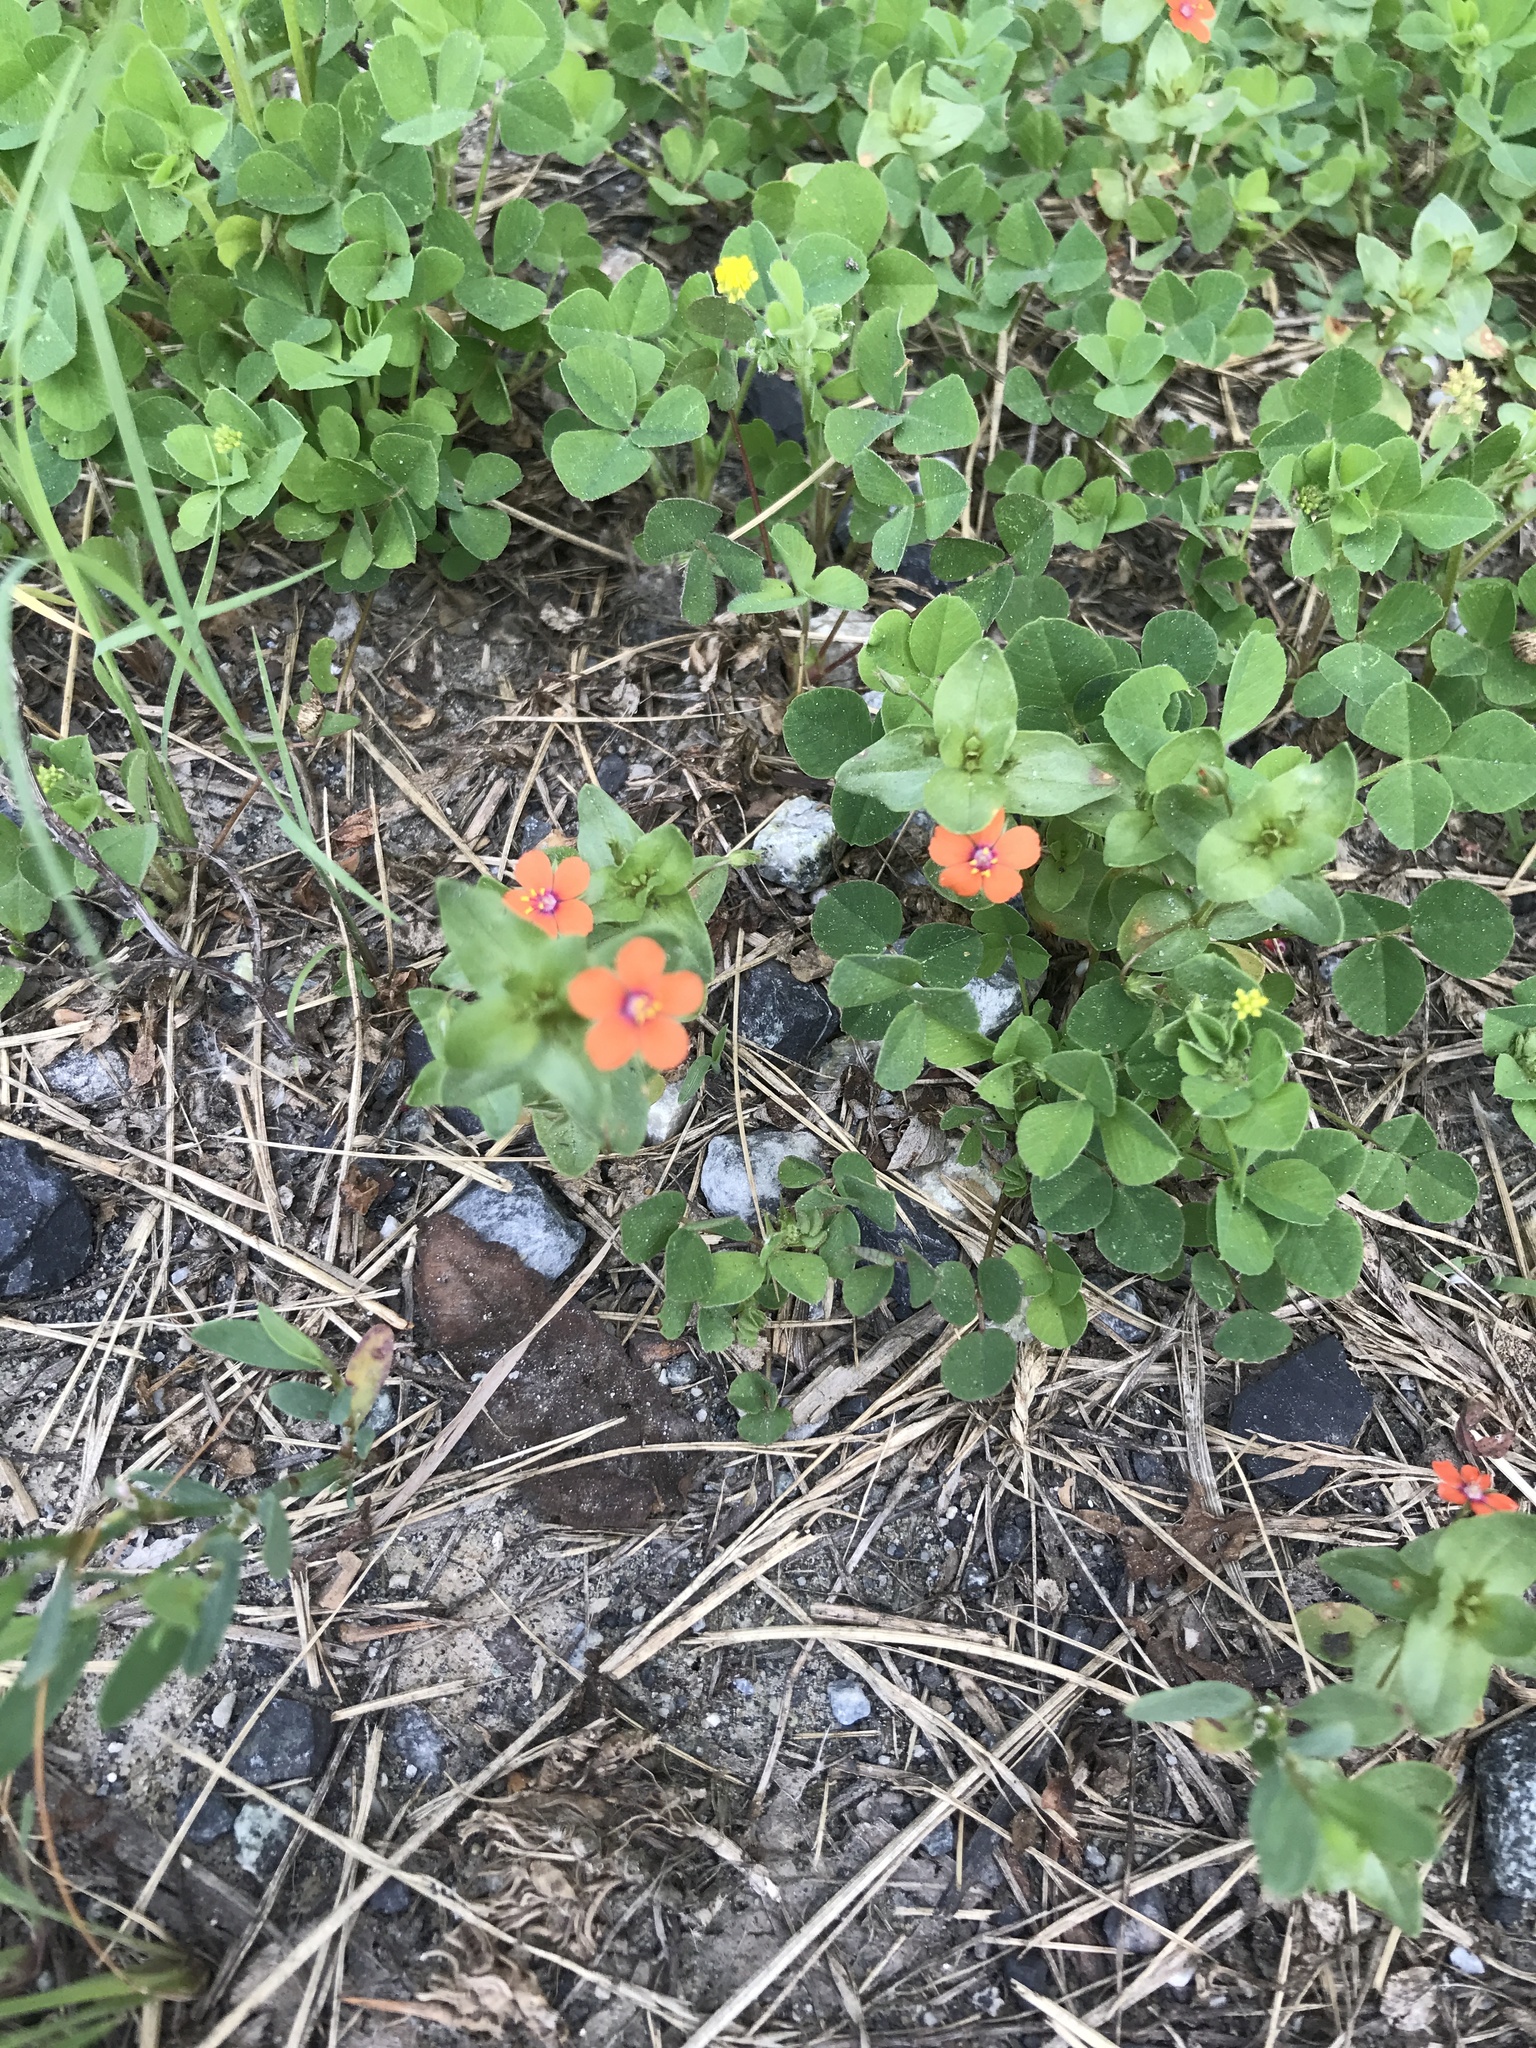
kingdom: Plantae
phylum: Tracheophyta
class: Magnoliopsida
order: Ericales
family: Primulaceae
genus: Lysimachia
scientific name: Lysimachia arvensis
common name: Scarlet pimpernel
